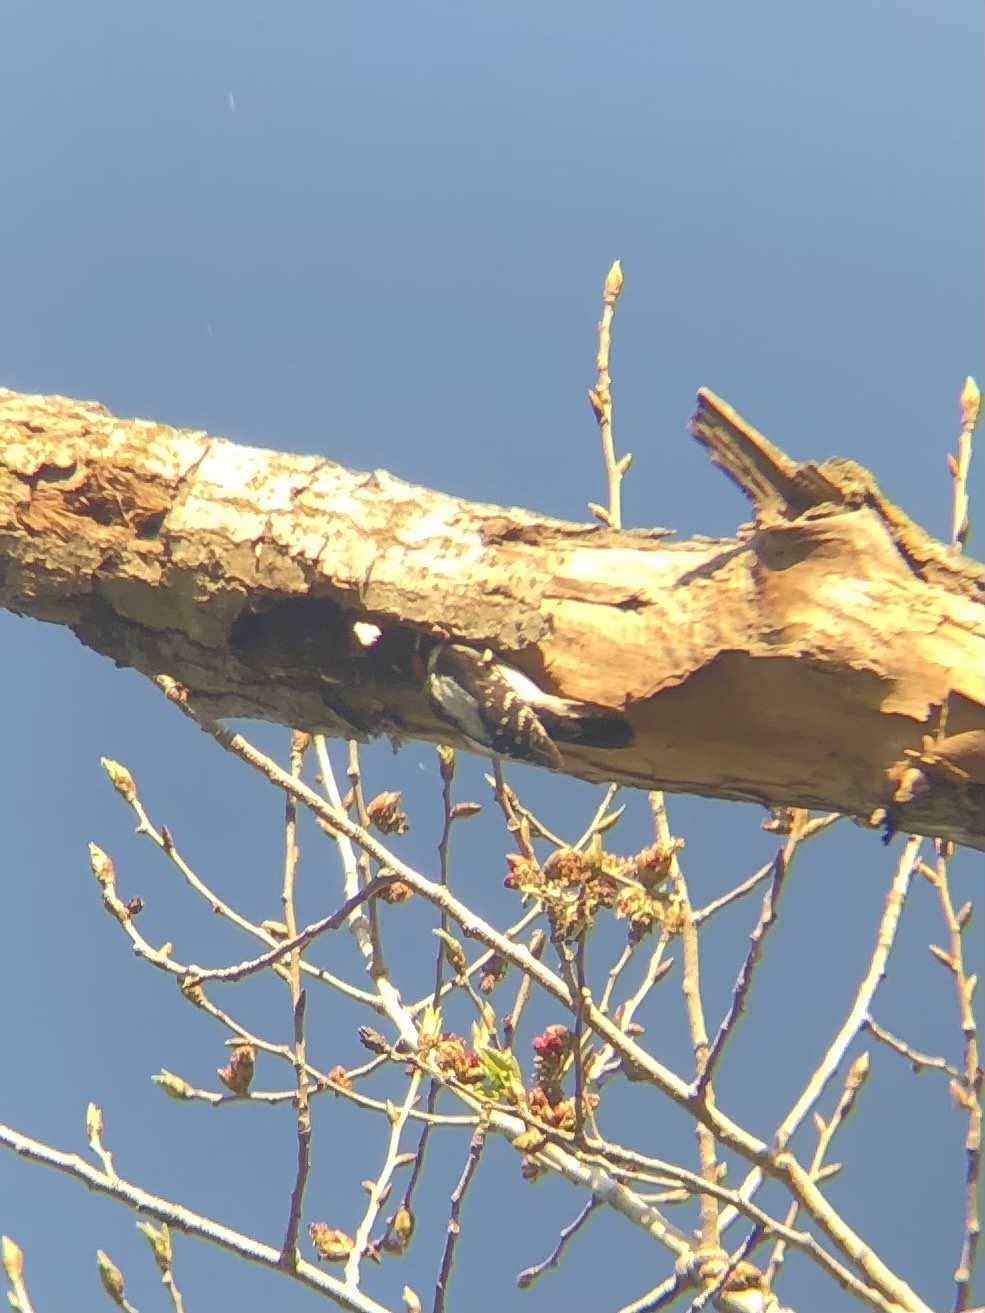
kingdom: Animalia
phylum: Chordata
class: Aves
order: Piciformes
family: Picidae
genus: Dryobates
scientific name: Dryobates pubescens
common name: Downy woodpecker
